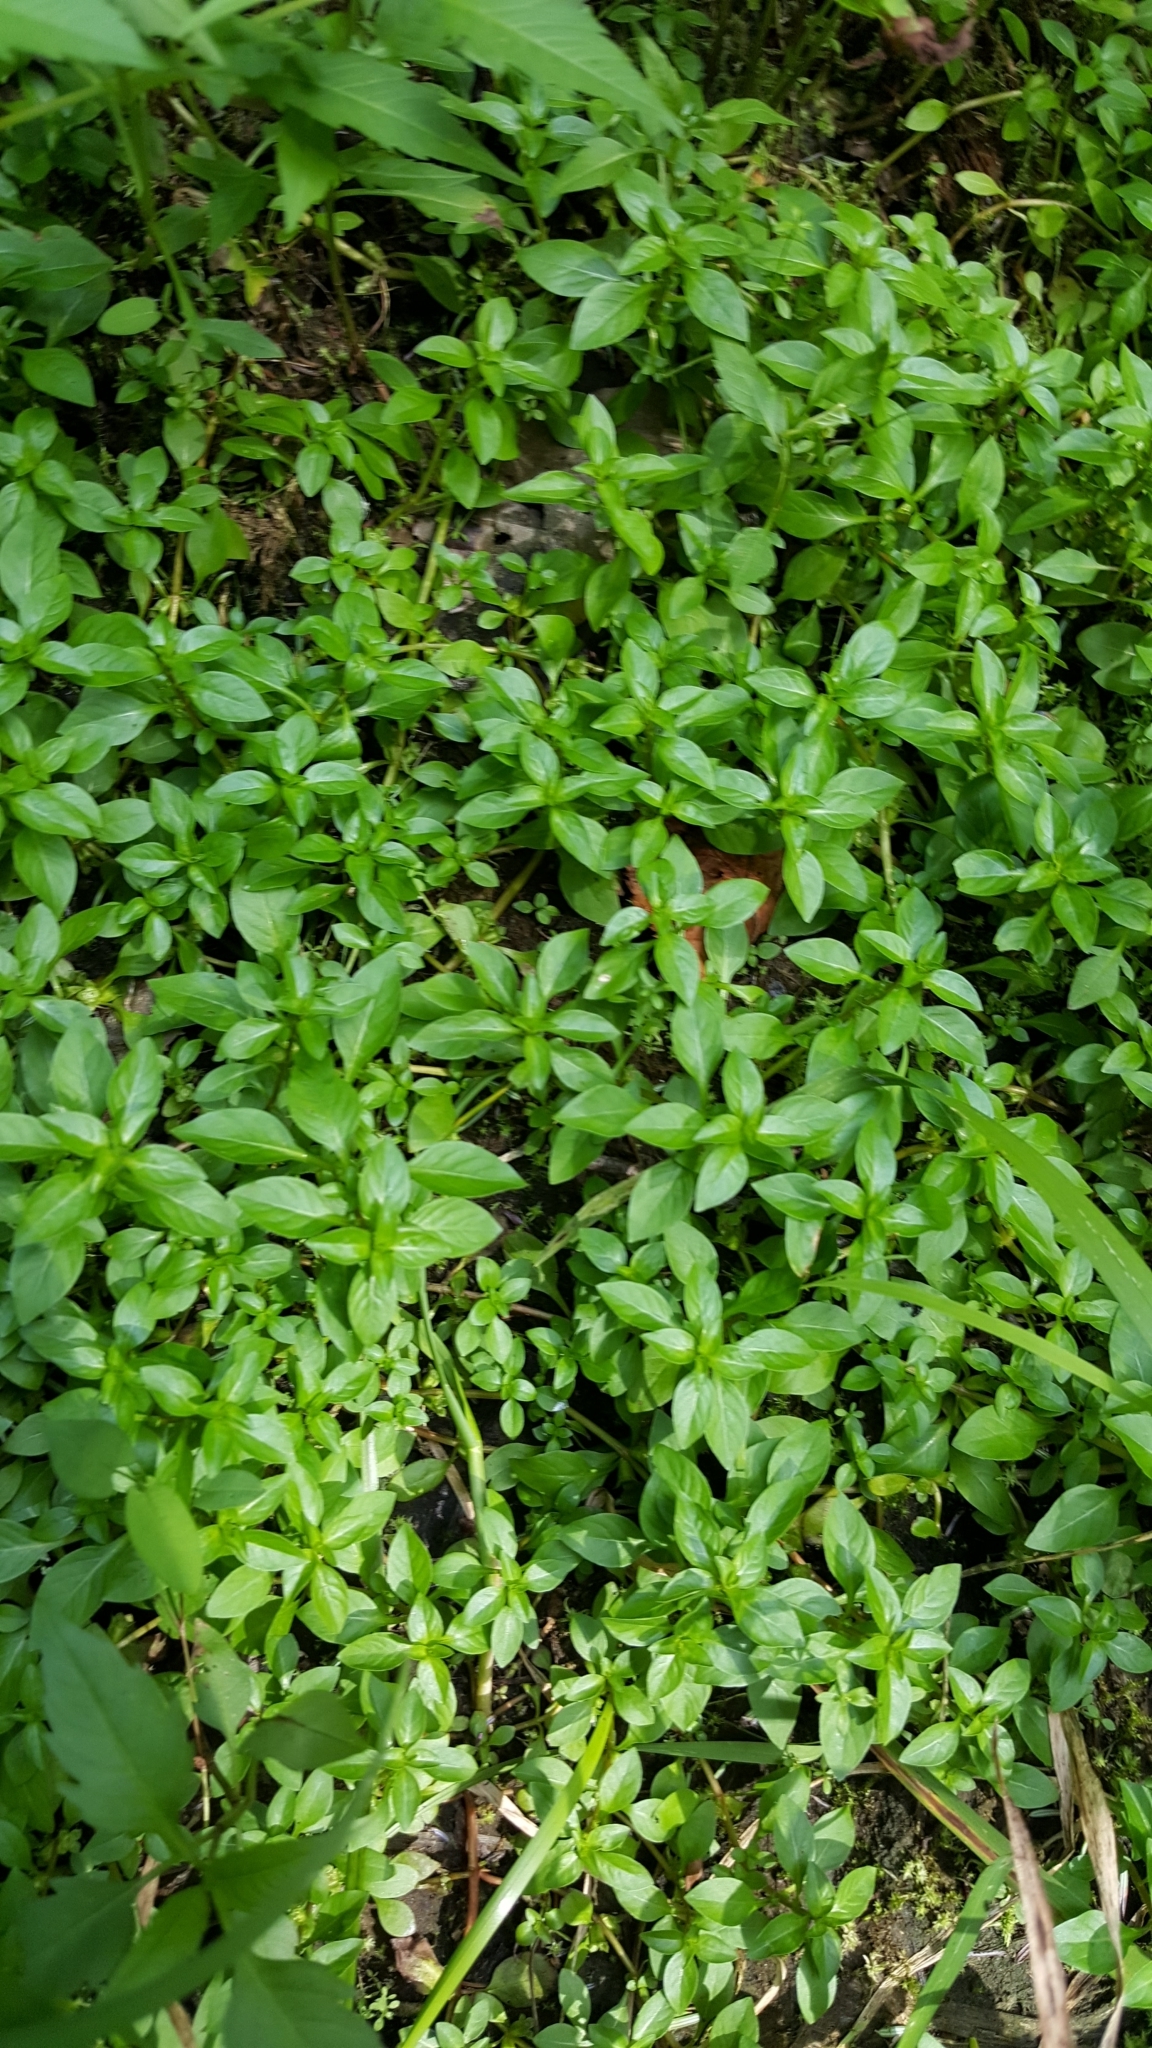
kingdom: Plantae
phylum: Tracheophyta
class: Magnoliopsida
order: Myrtales
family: Onagraceae
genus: Ludwigia
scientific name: Ludwigia palustris
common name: Hampshire-purslane
